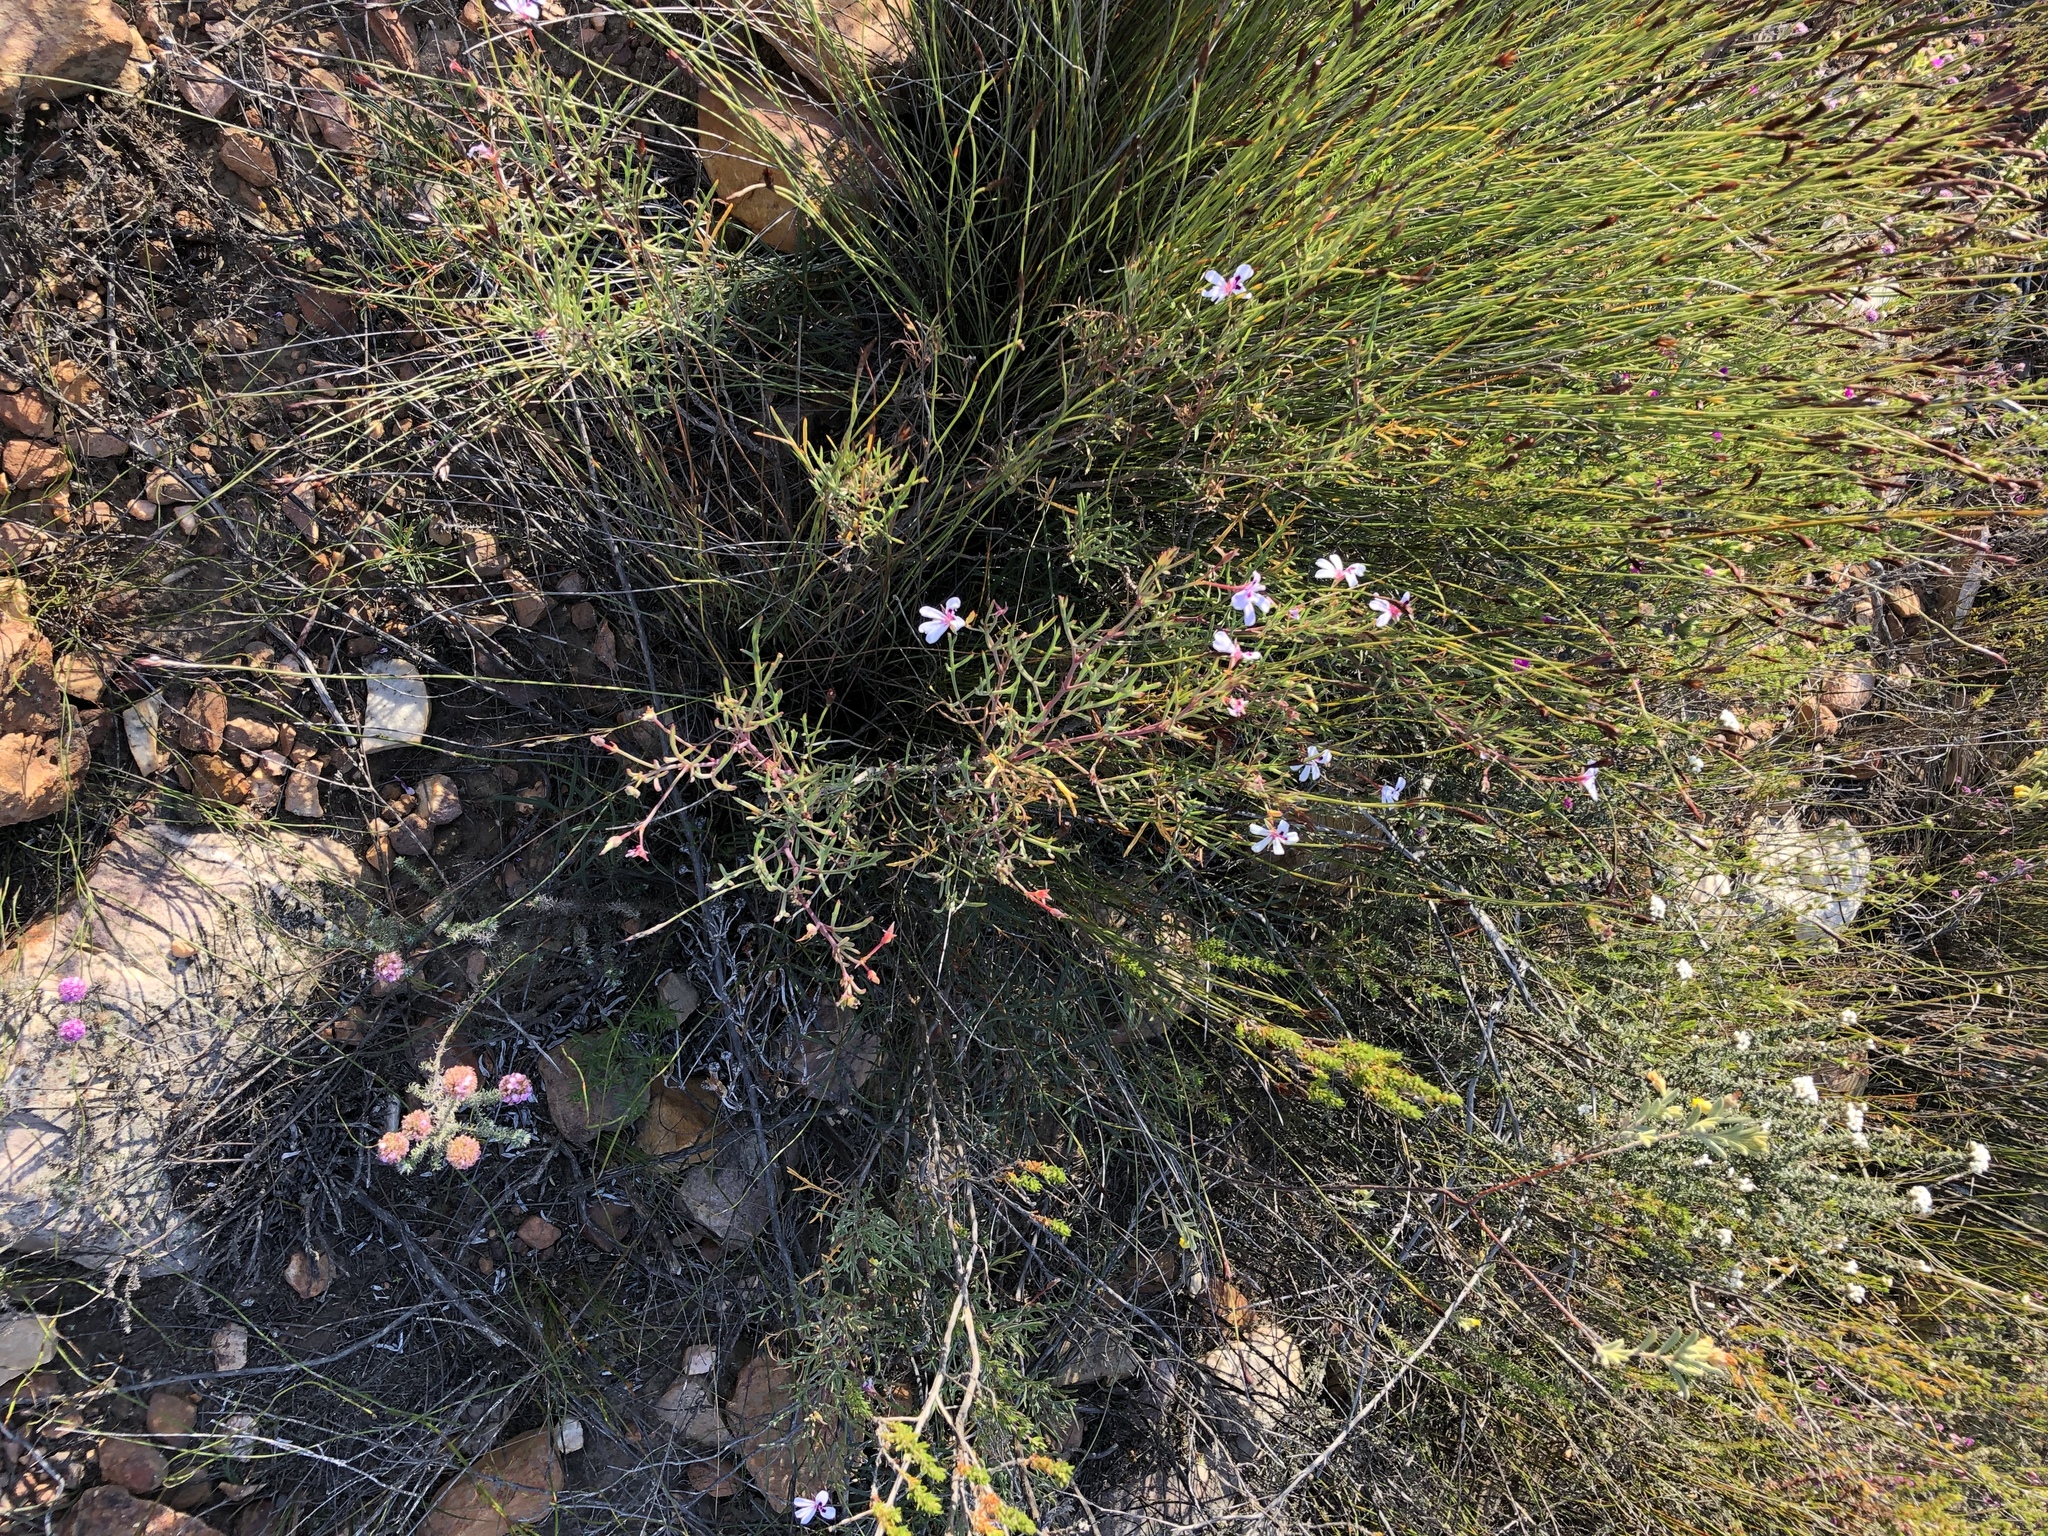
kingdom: Plantae
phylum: Tracheophyta
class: Magnoliopsida
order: Geraniales
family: Geraniaceae
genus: Pelargonium
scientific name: Pelargonium laevigatum
